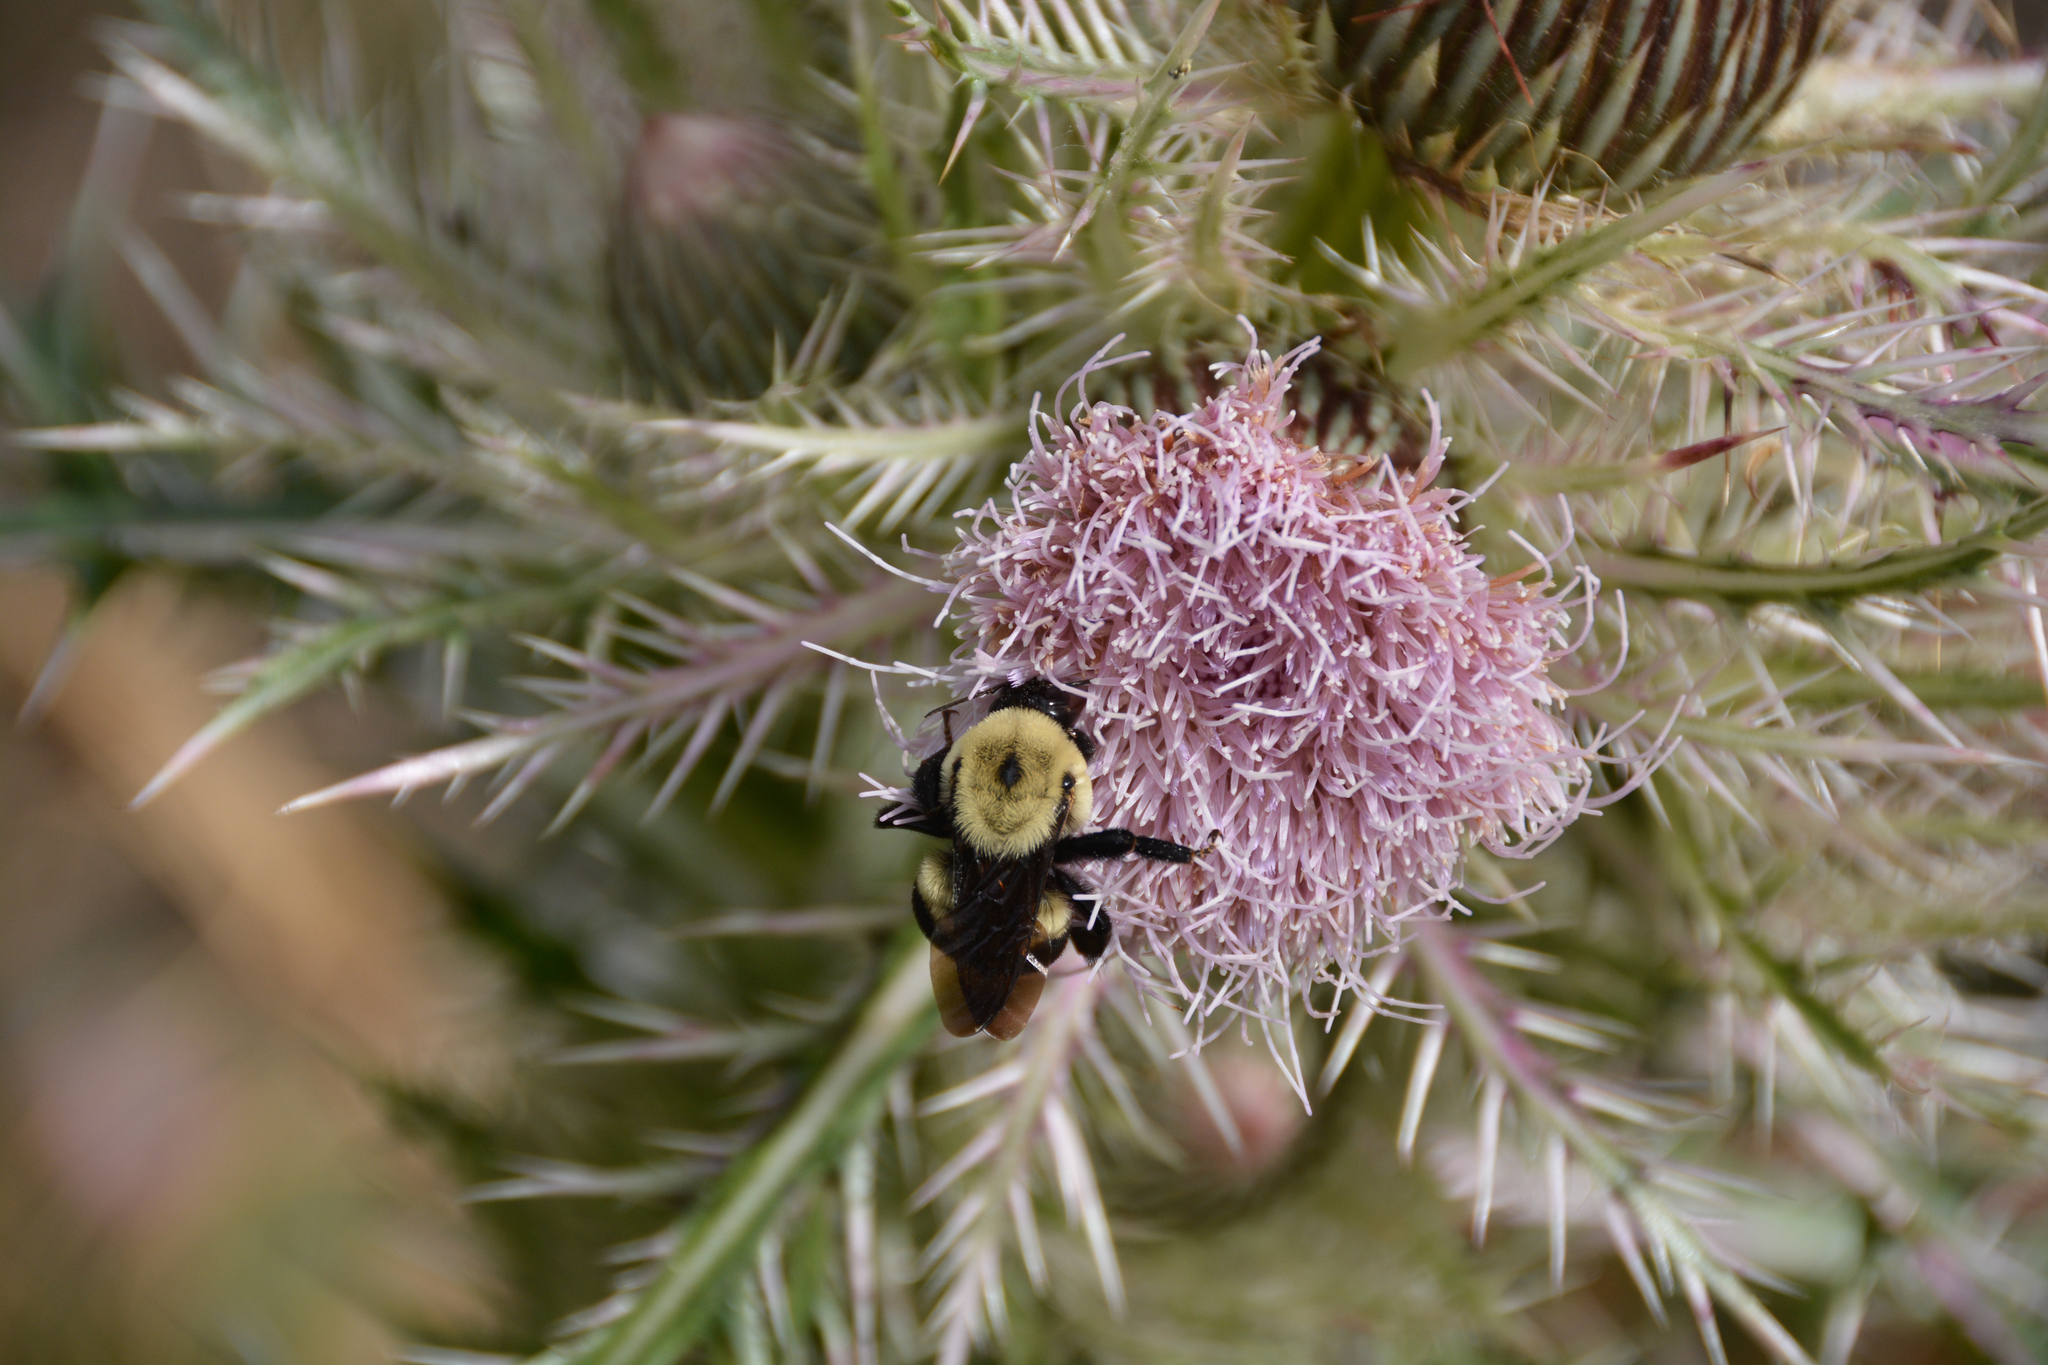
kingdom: Animalia
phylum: Arthropoda
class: Insecta
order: Hymenoptera
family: Apidae
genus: Bombus
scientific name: Bombus griseocollis
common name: Brown-belted bumble bee
